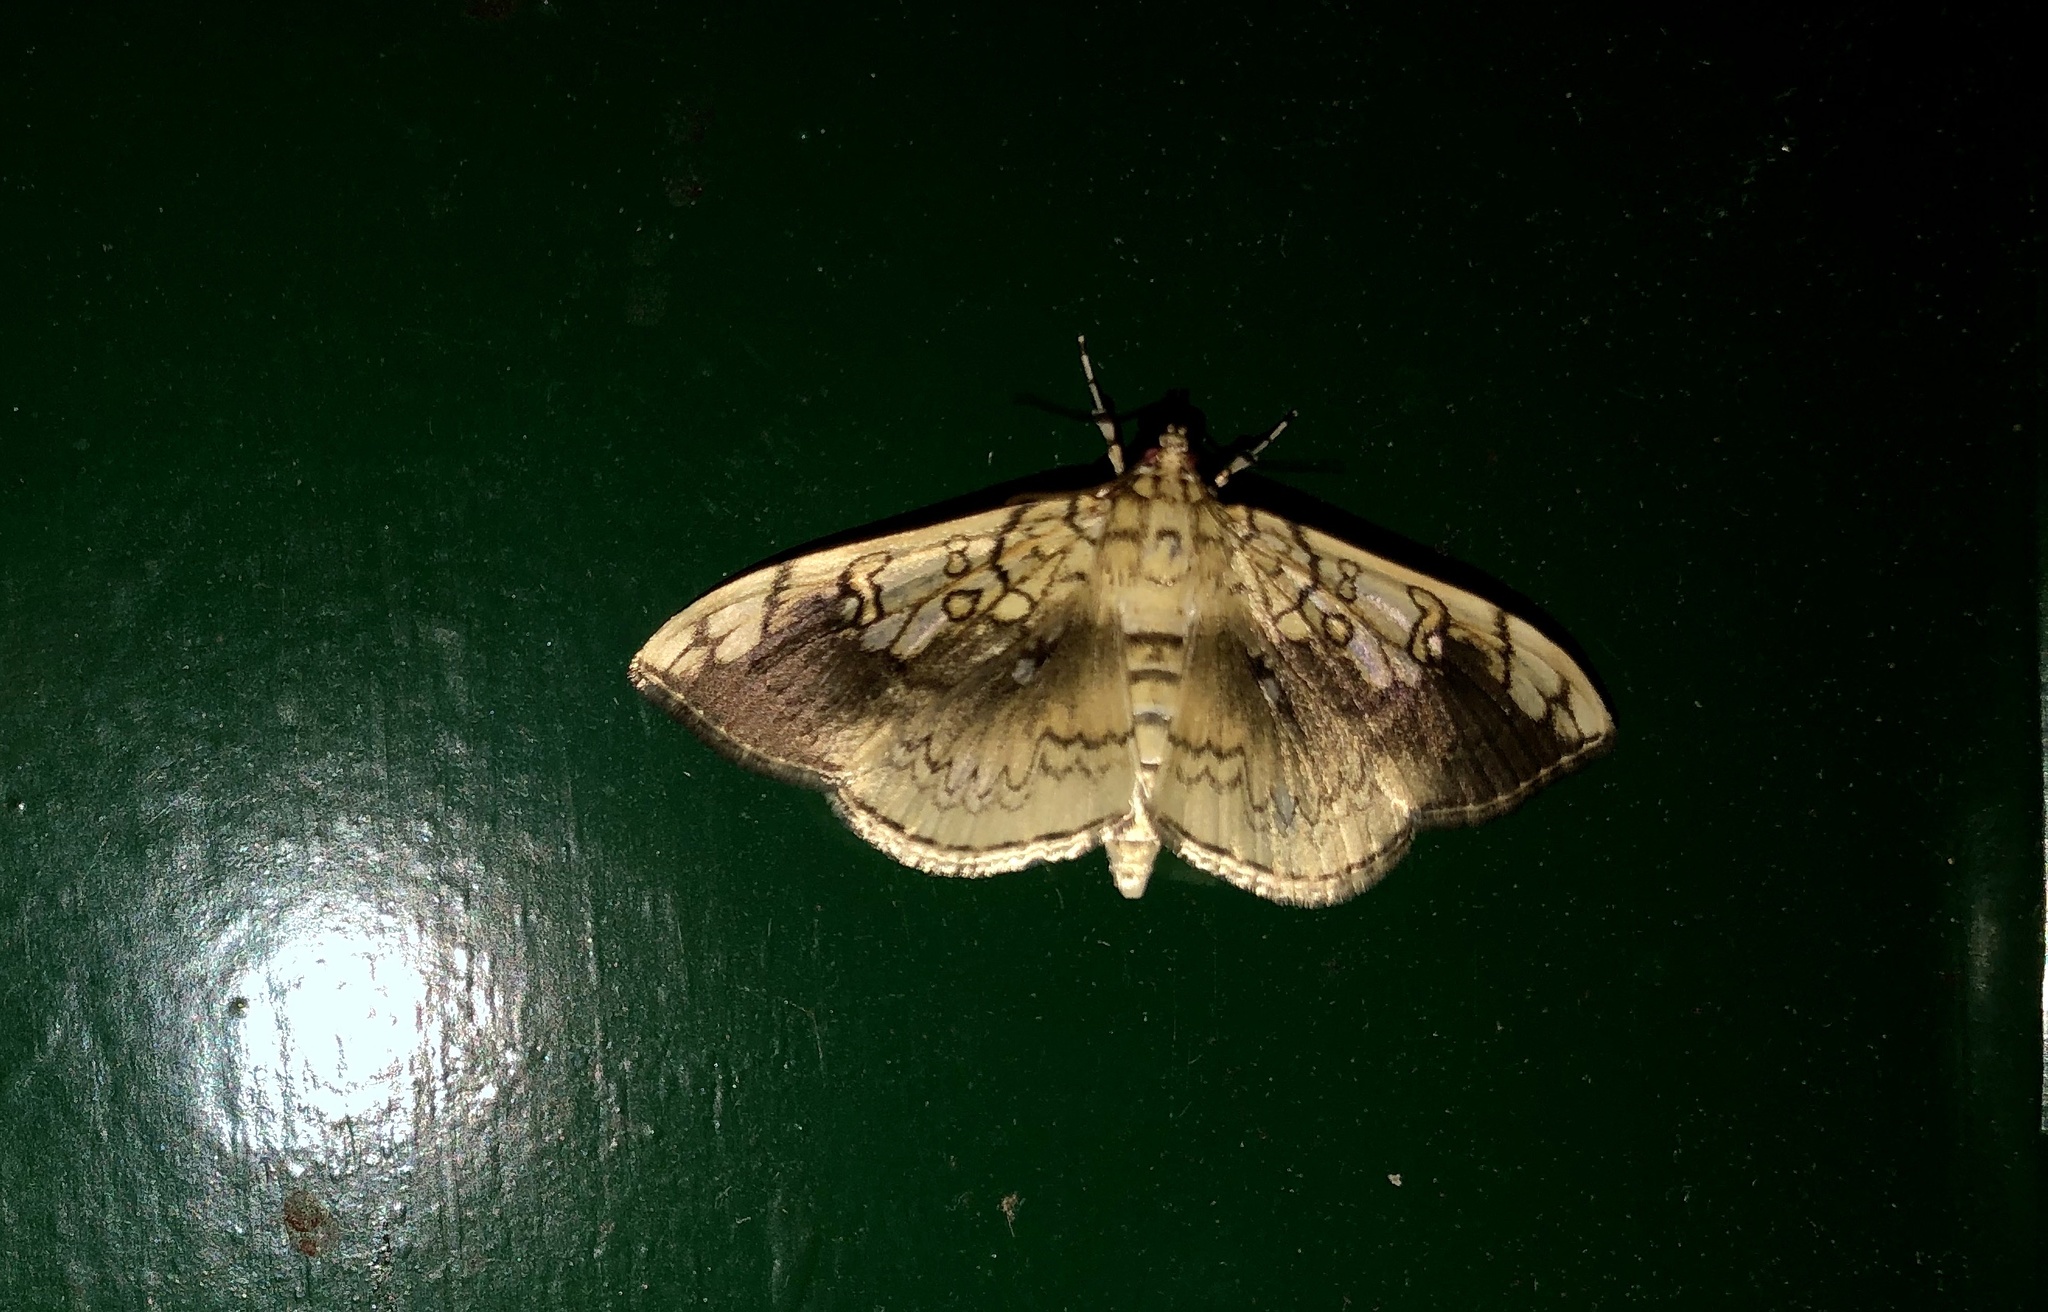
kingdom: Animalia
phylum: Arthropoda
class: Insecta
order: Lepidoptera
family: Crambidae
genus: Pantographa
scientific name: Pantographa limata
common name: Basswood leafroller moth
